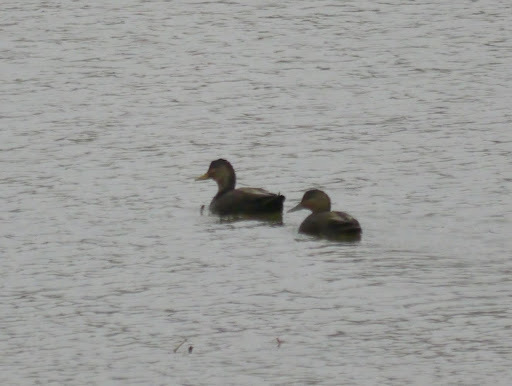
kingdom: Animalia
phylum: Chordata
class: Aves
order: Anseriformes
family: Anatidae
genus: Anas
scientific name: Anas rubripes
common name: American black duck
